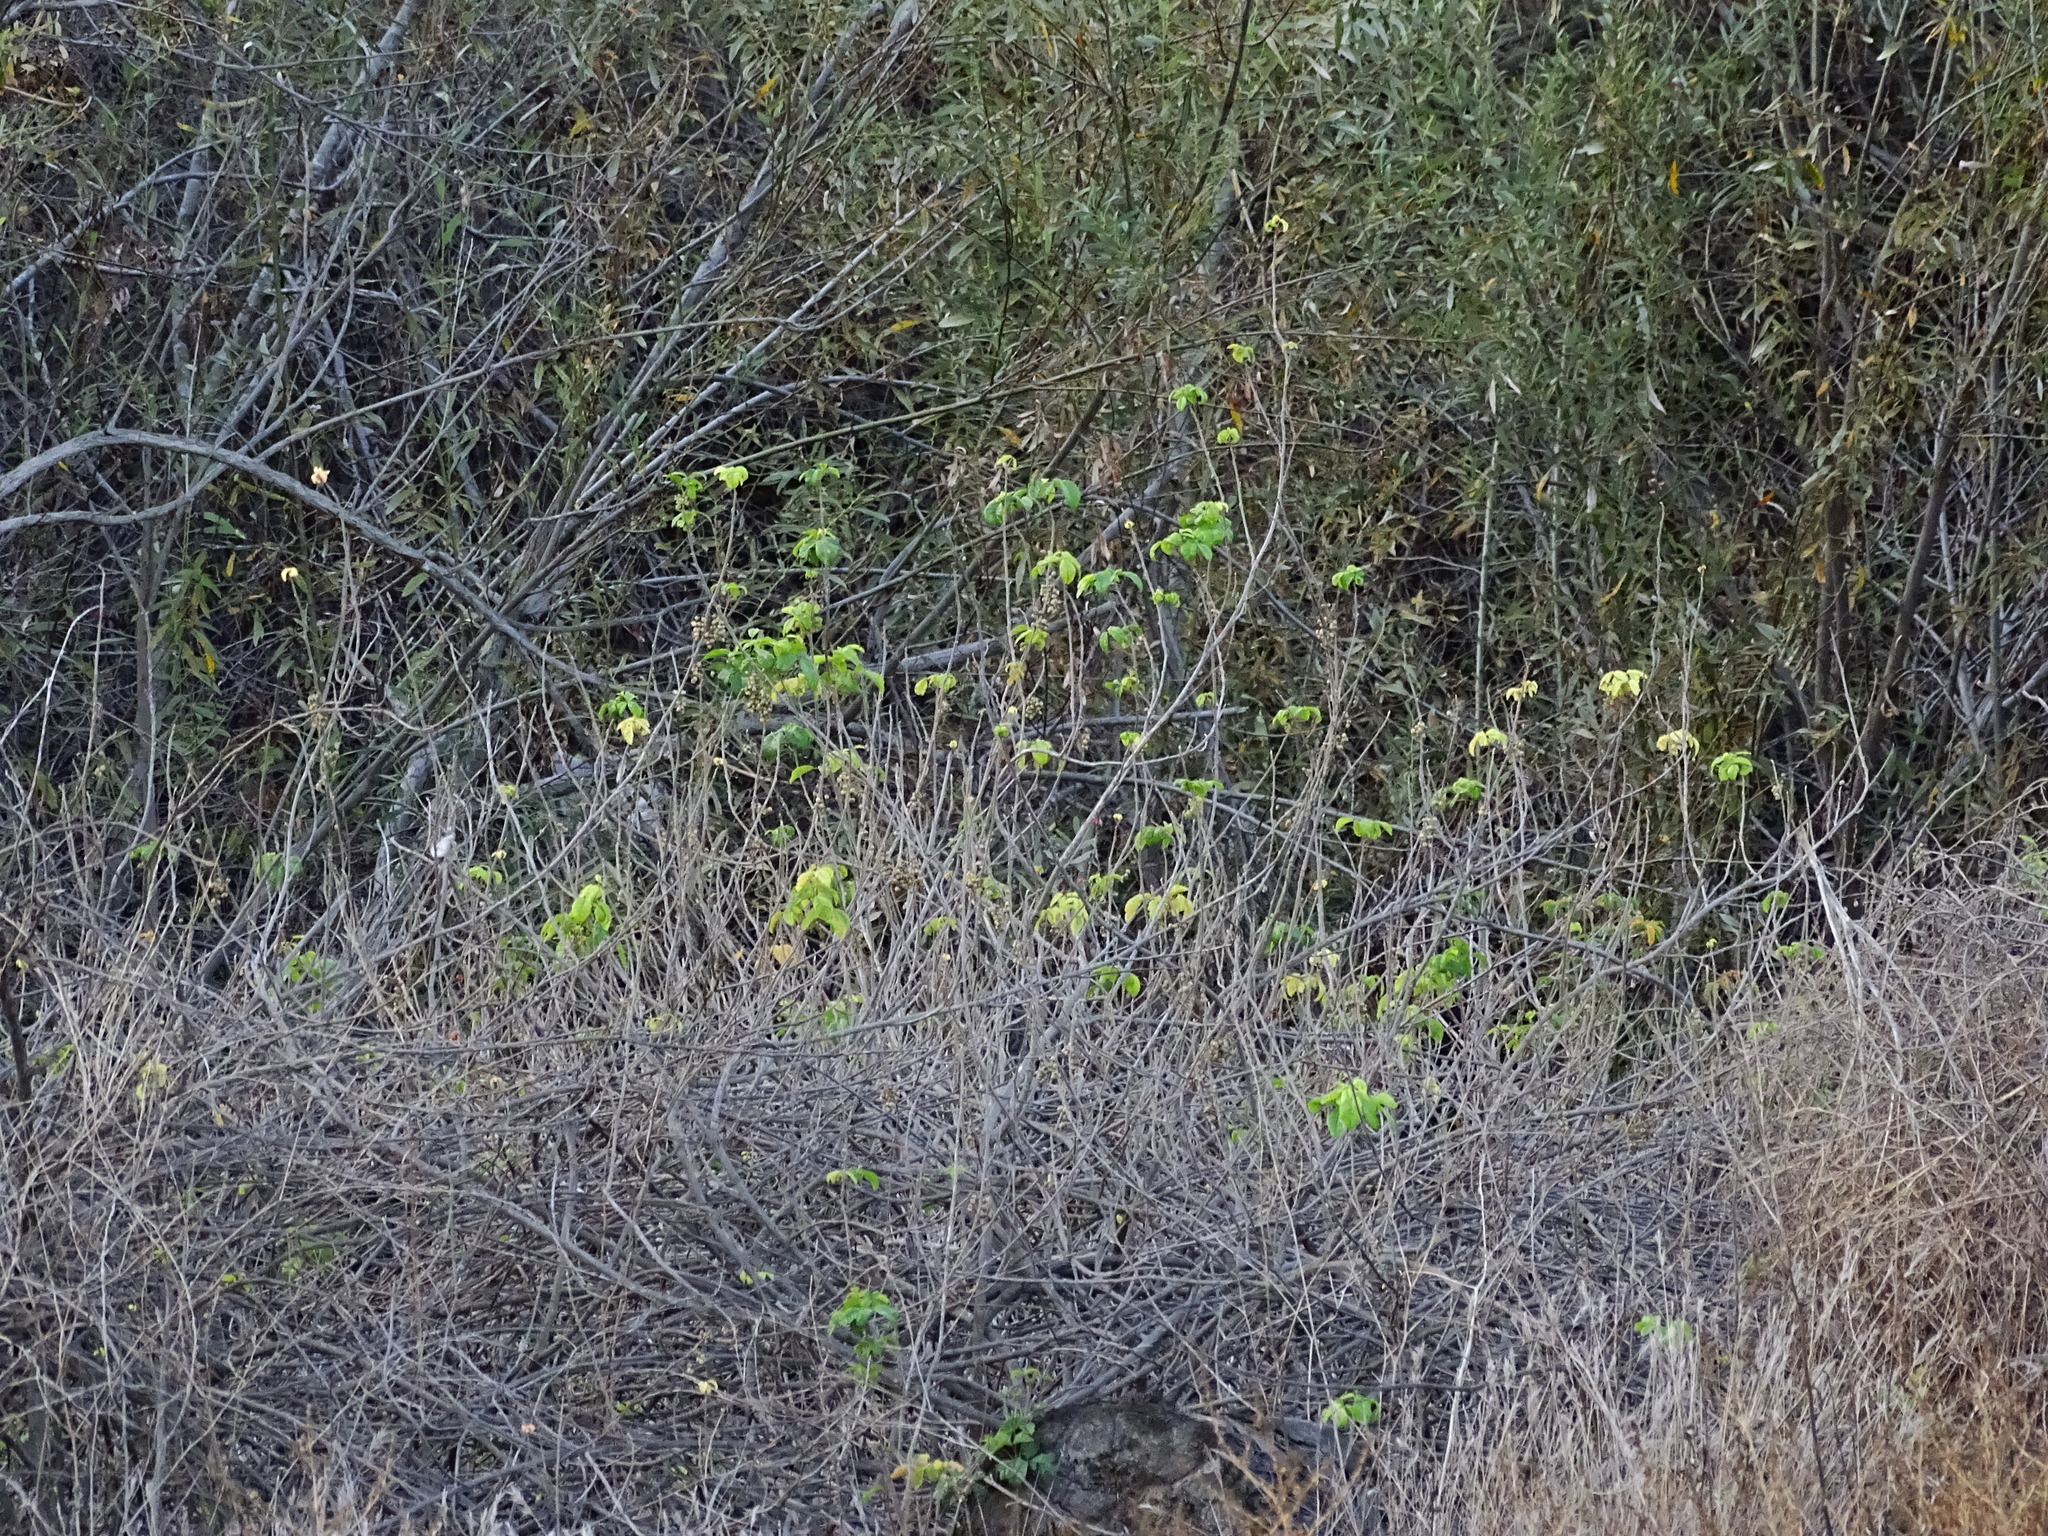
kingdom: Plantae
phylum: Tracheophyta
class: Magnoliopsida
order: Sapindales
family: Anacardiaceae
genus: Toxicodendron
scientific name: Toxicodendron diversilobum
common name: Pacific poison-oak
